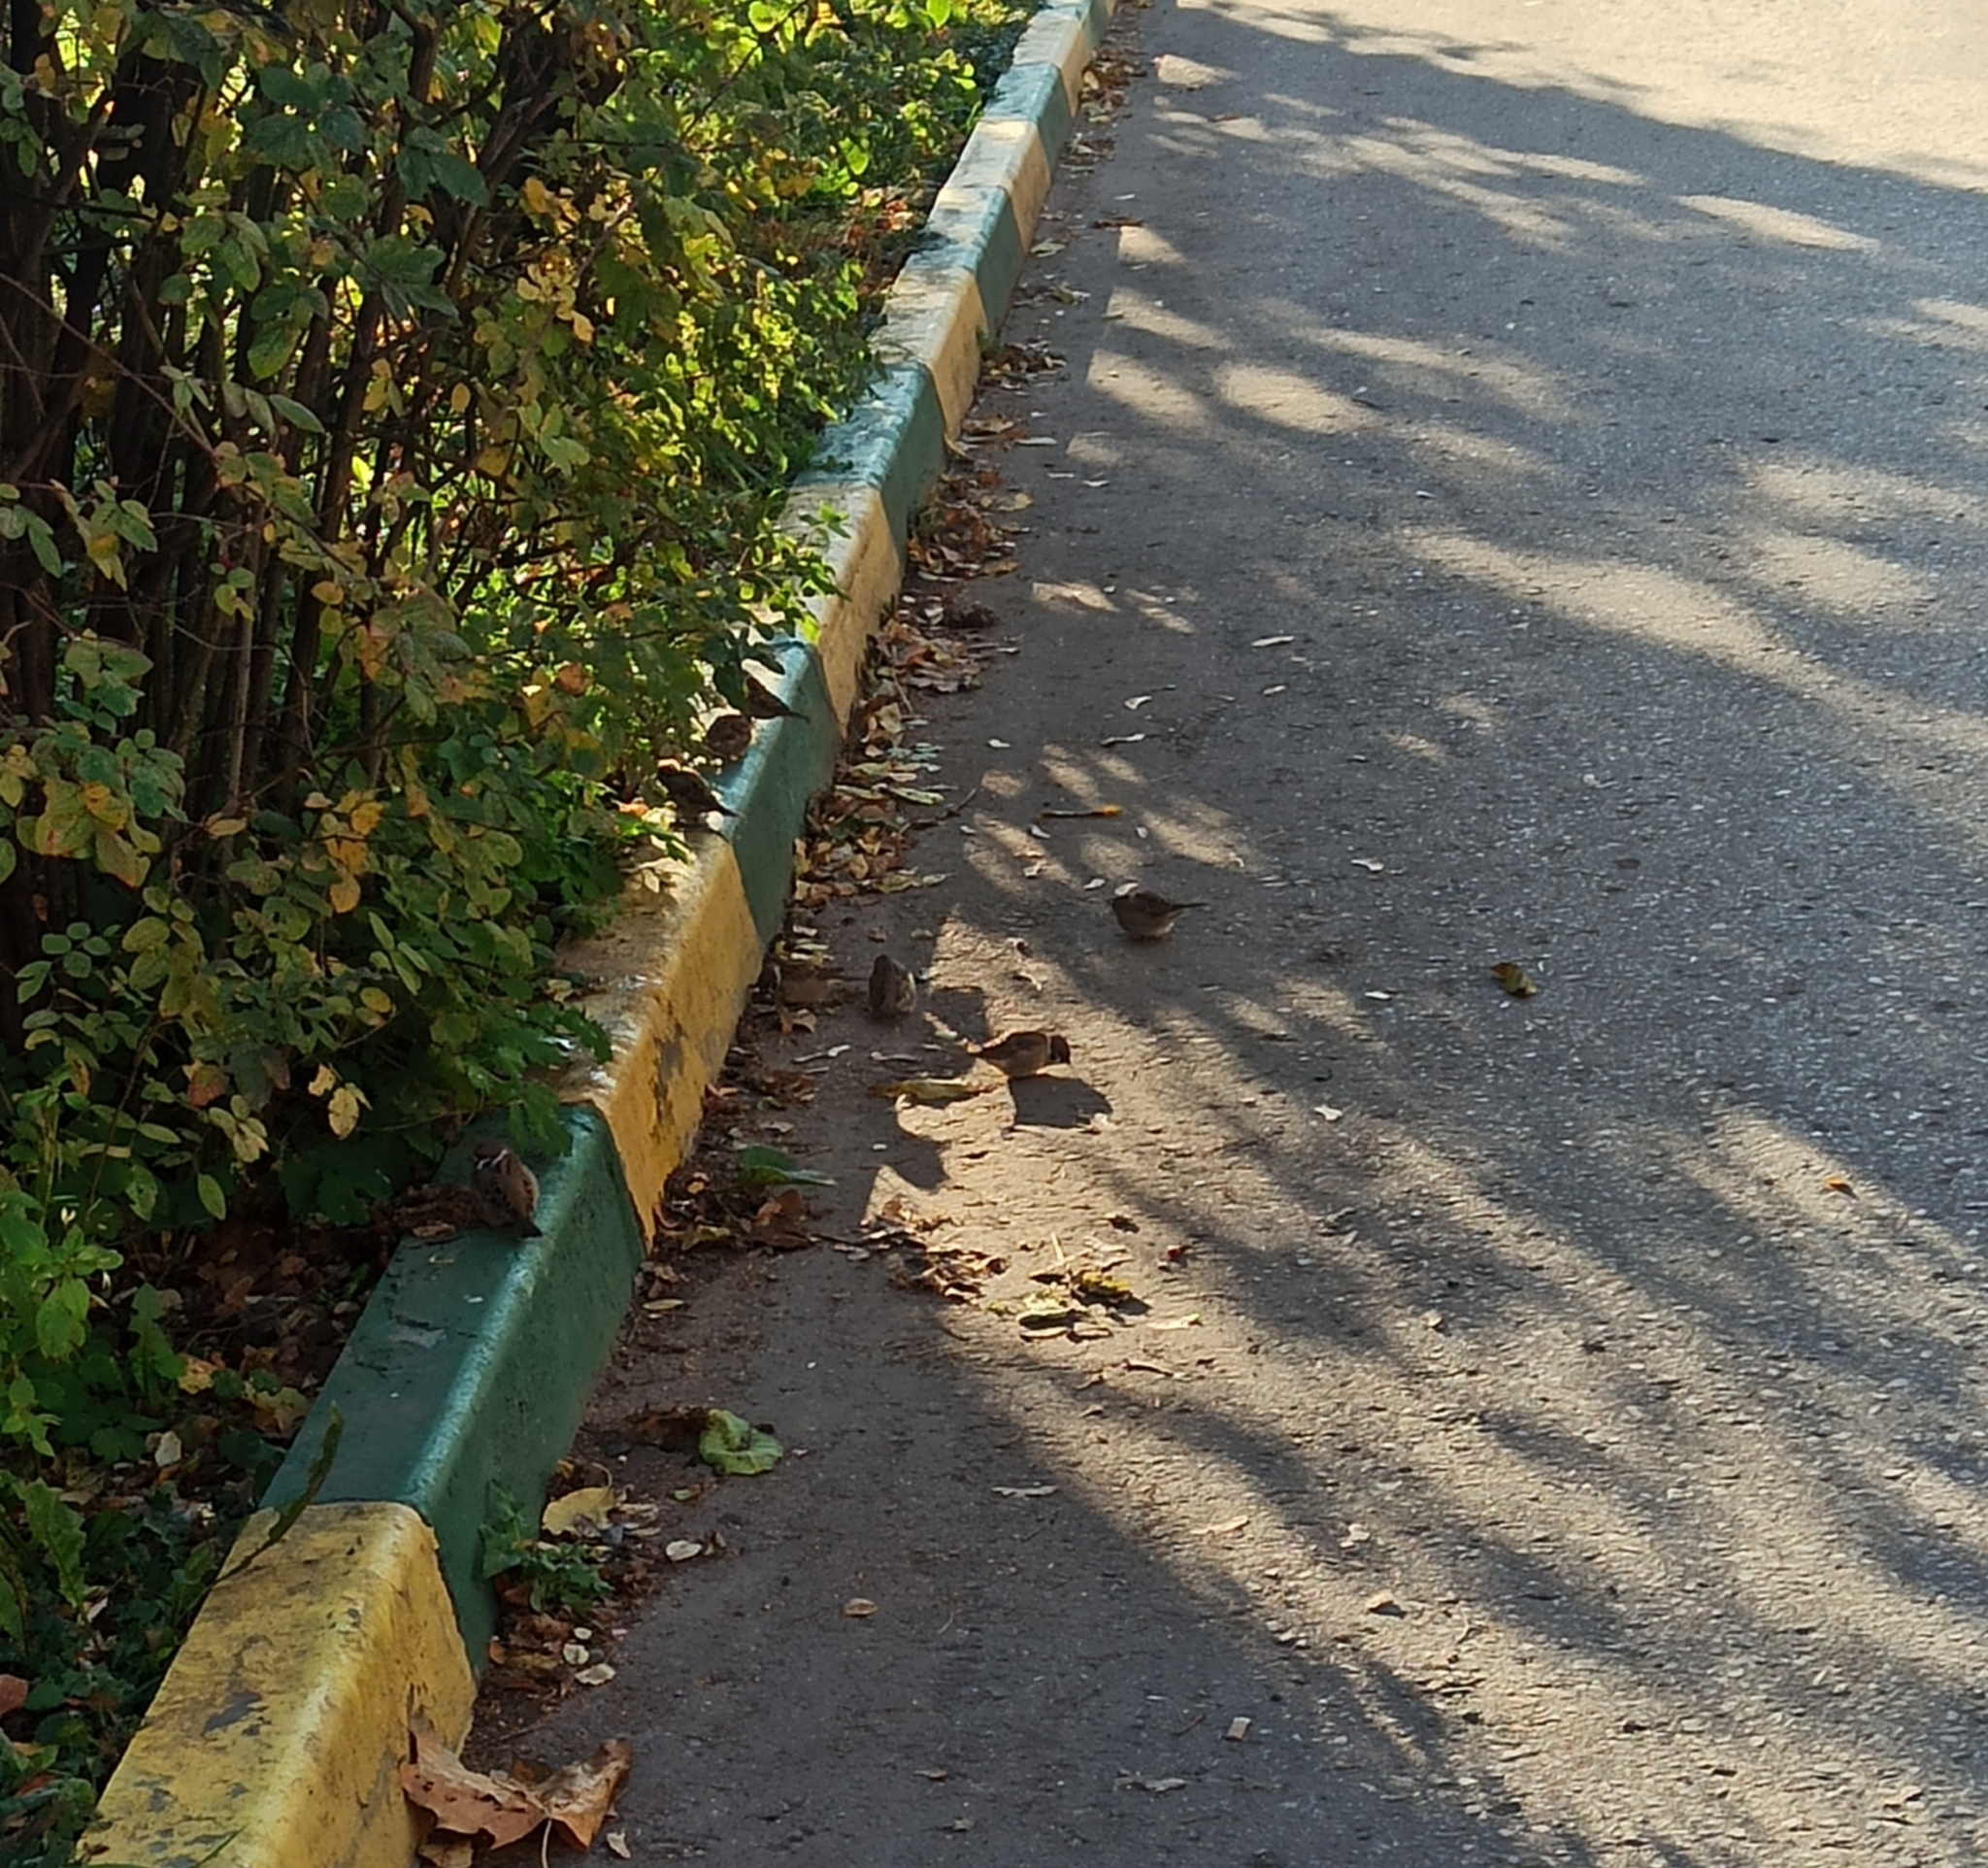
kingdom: Animalia
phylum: Chordata
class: Aves
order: Passeriformes
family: Passeridae
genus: Passer
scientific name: Passer montanus
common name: Eurasian tree sparrow
